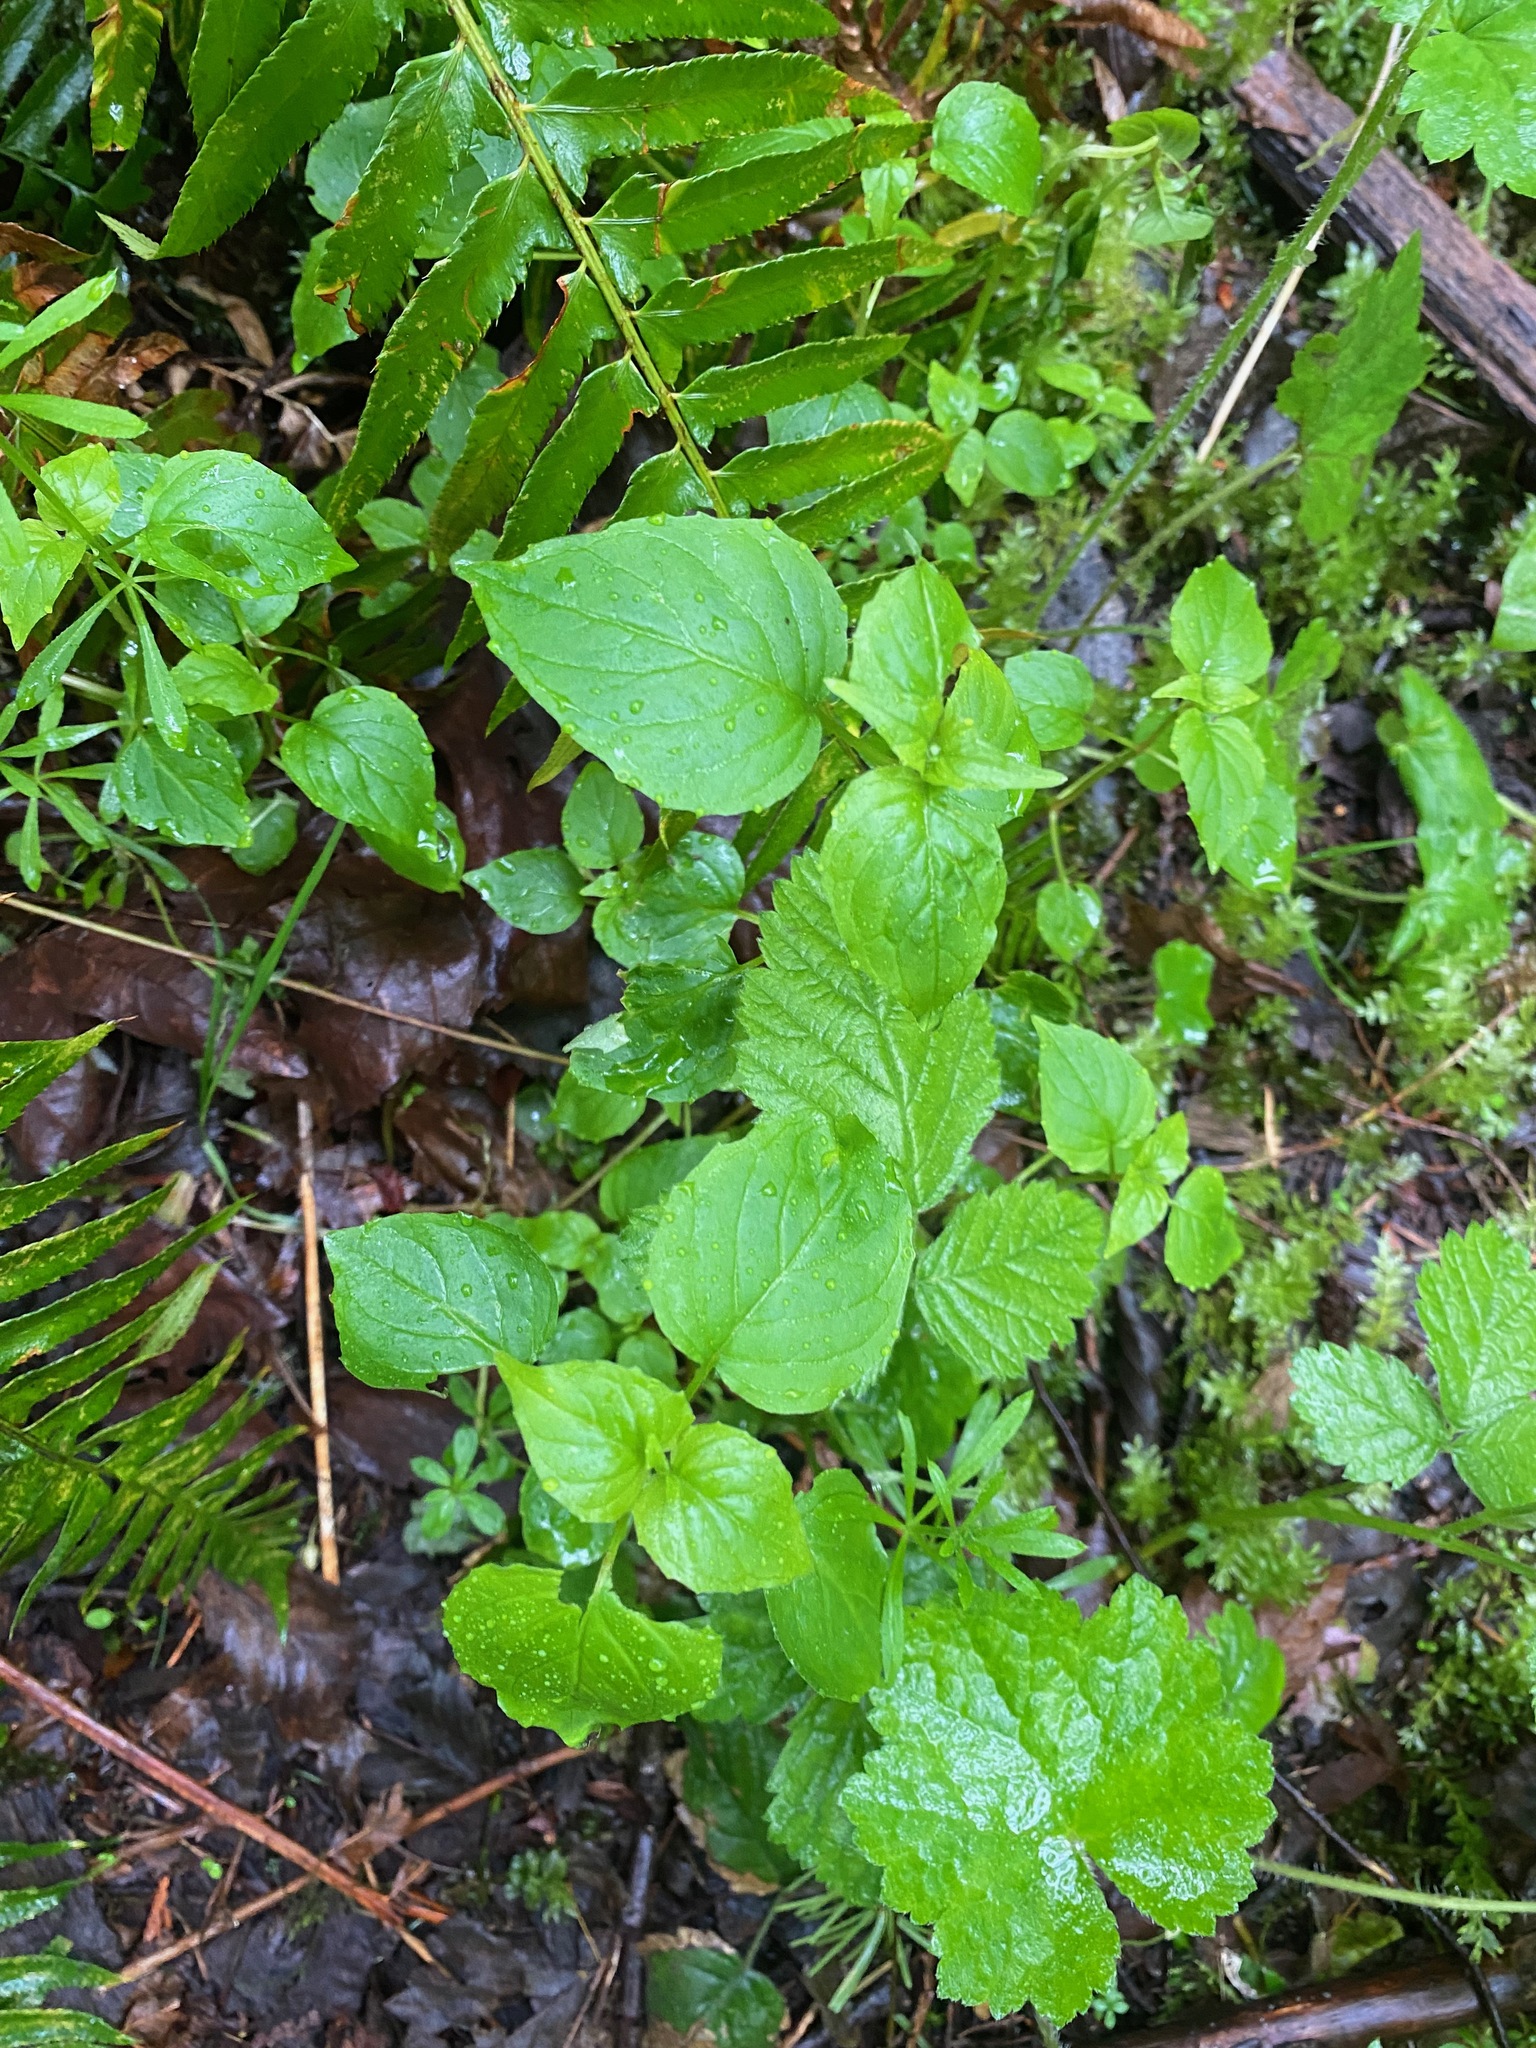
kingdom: Plantae
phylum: Tracheophyta
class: Magnoliopsida
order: Myrtales
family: Onagraceae
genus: Circaea
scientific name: Circaea alpina
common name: Alpine enchanter's-nightshade
